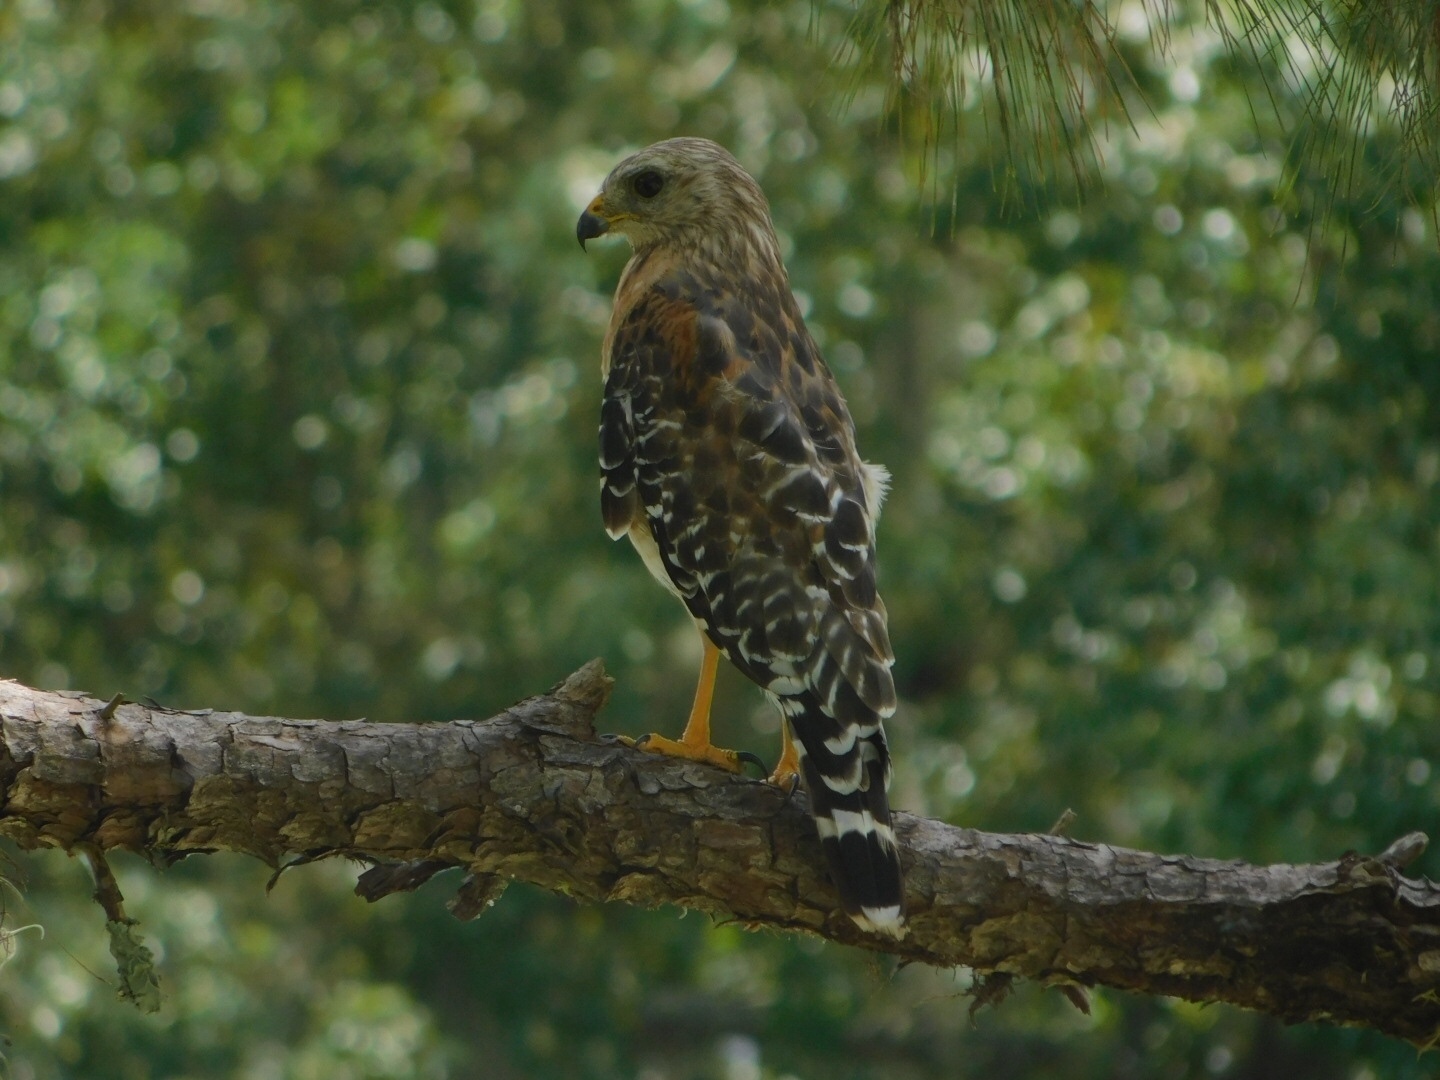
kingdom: Animalia
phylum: Chordata
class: Aves
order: Accipitriformes
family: Accipitridae
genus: Buteo
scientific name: Buteo lineatus
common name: Red-shouldered hawk
